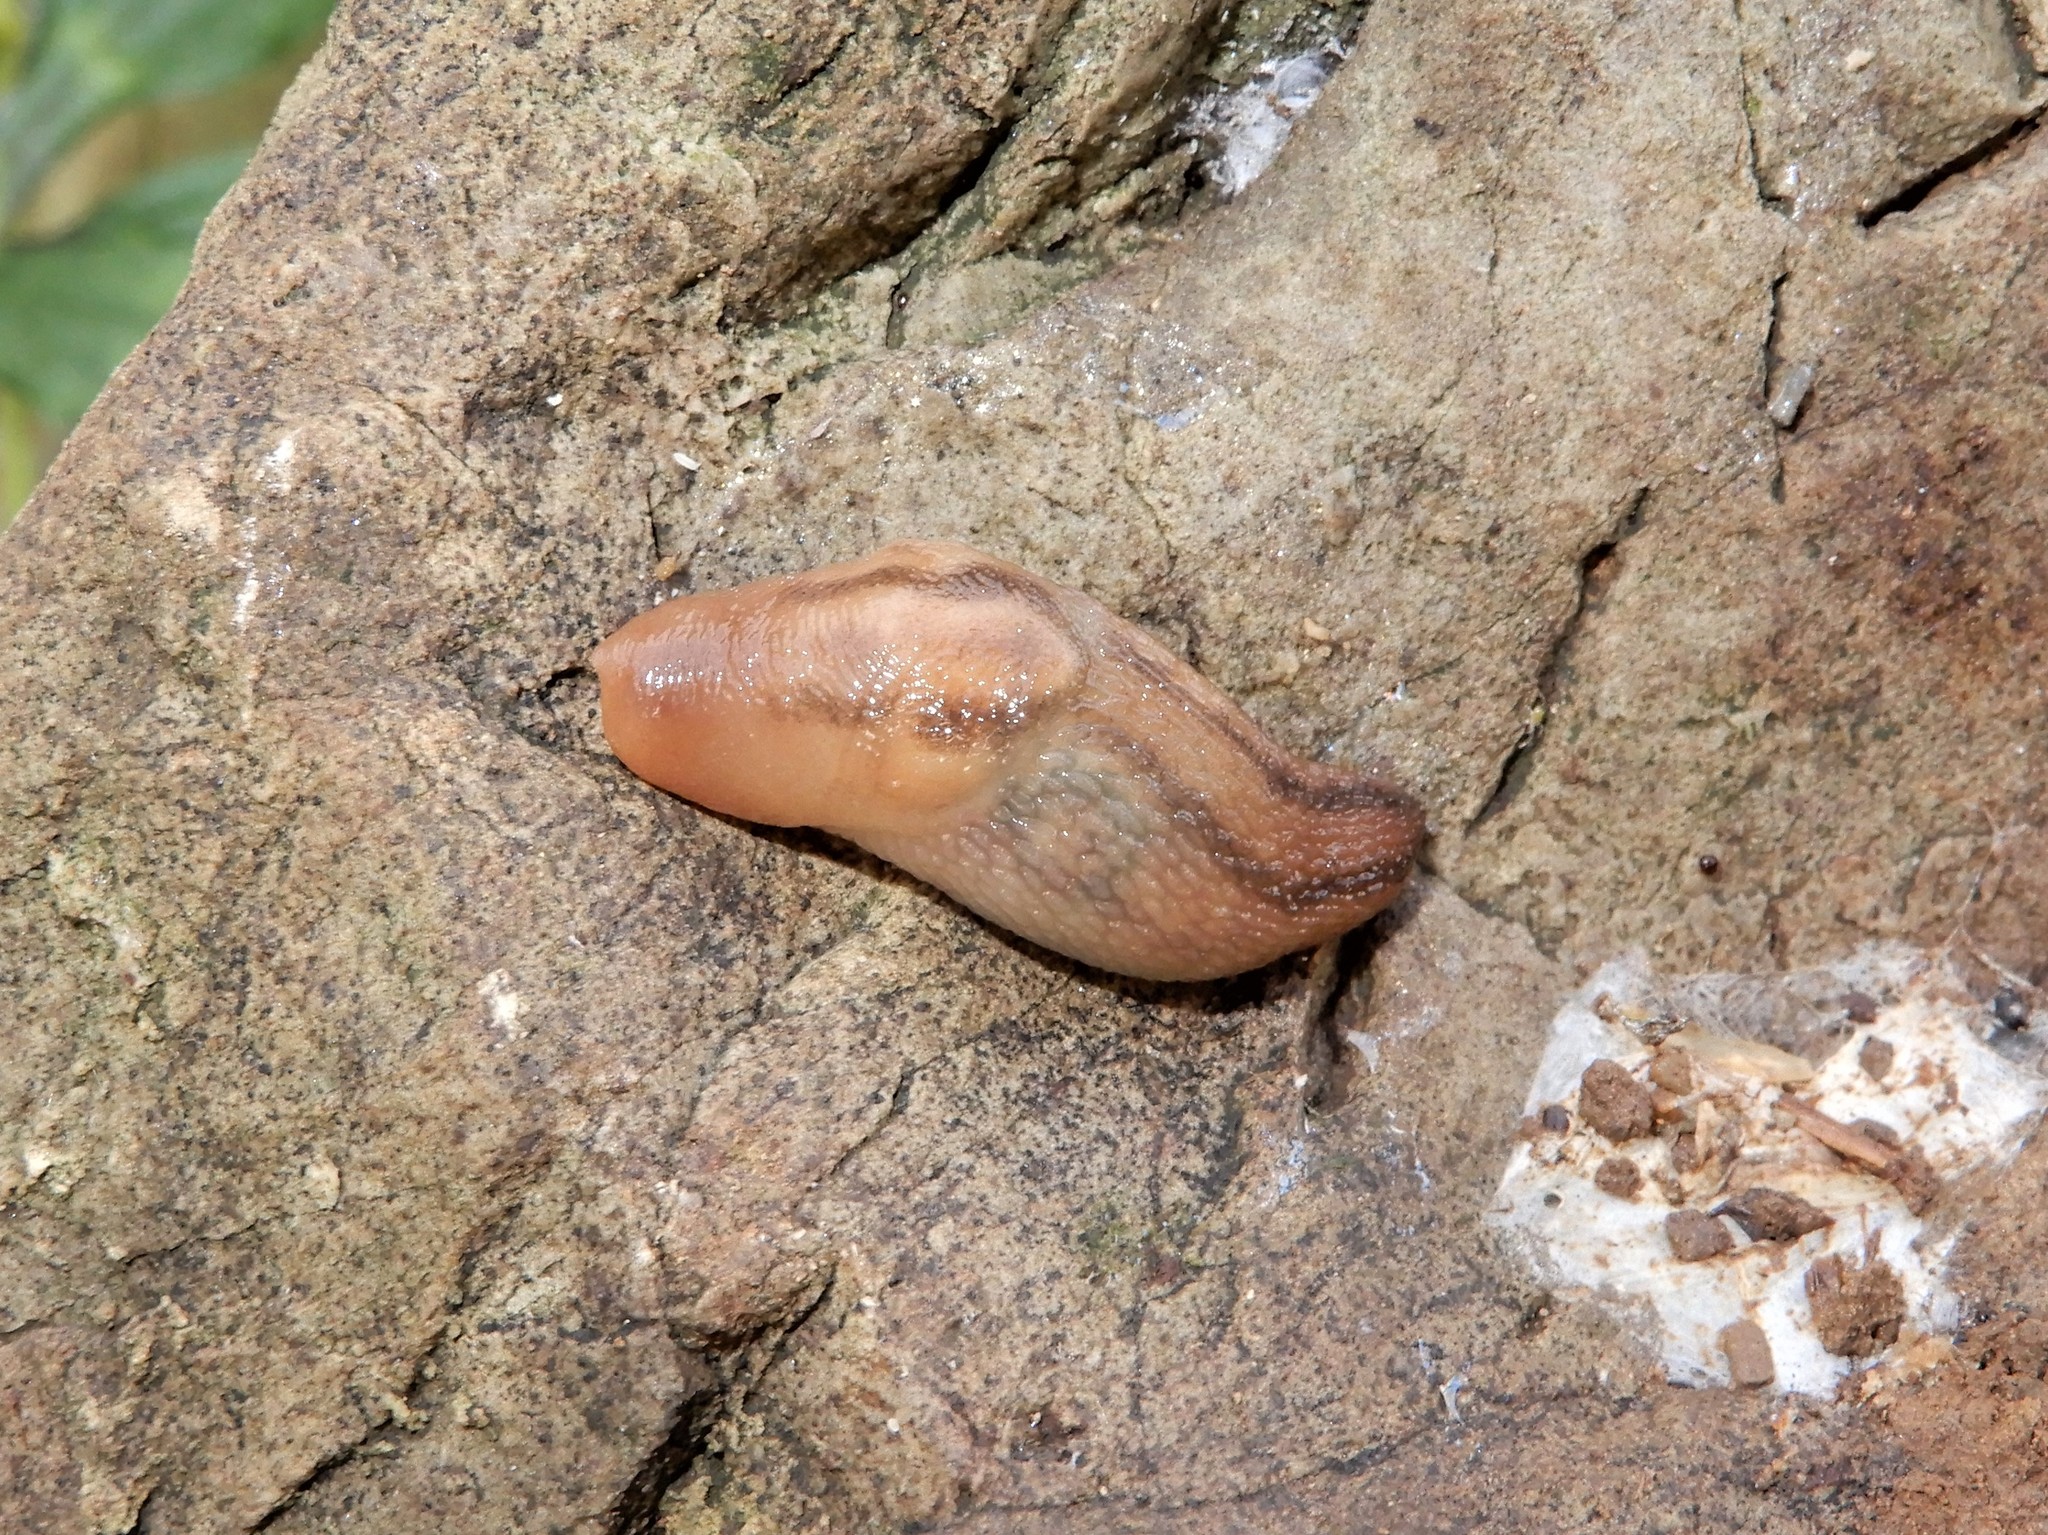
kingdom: Animalia
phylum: Mollusca
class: Gastropoda
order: Stylommatophora
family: Limacidae
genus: Ambigolimax
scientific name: Ambigolimax
